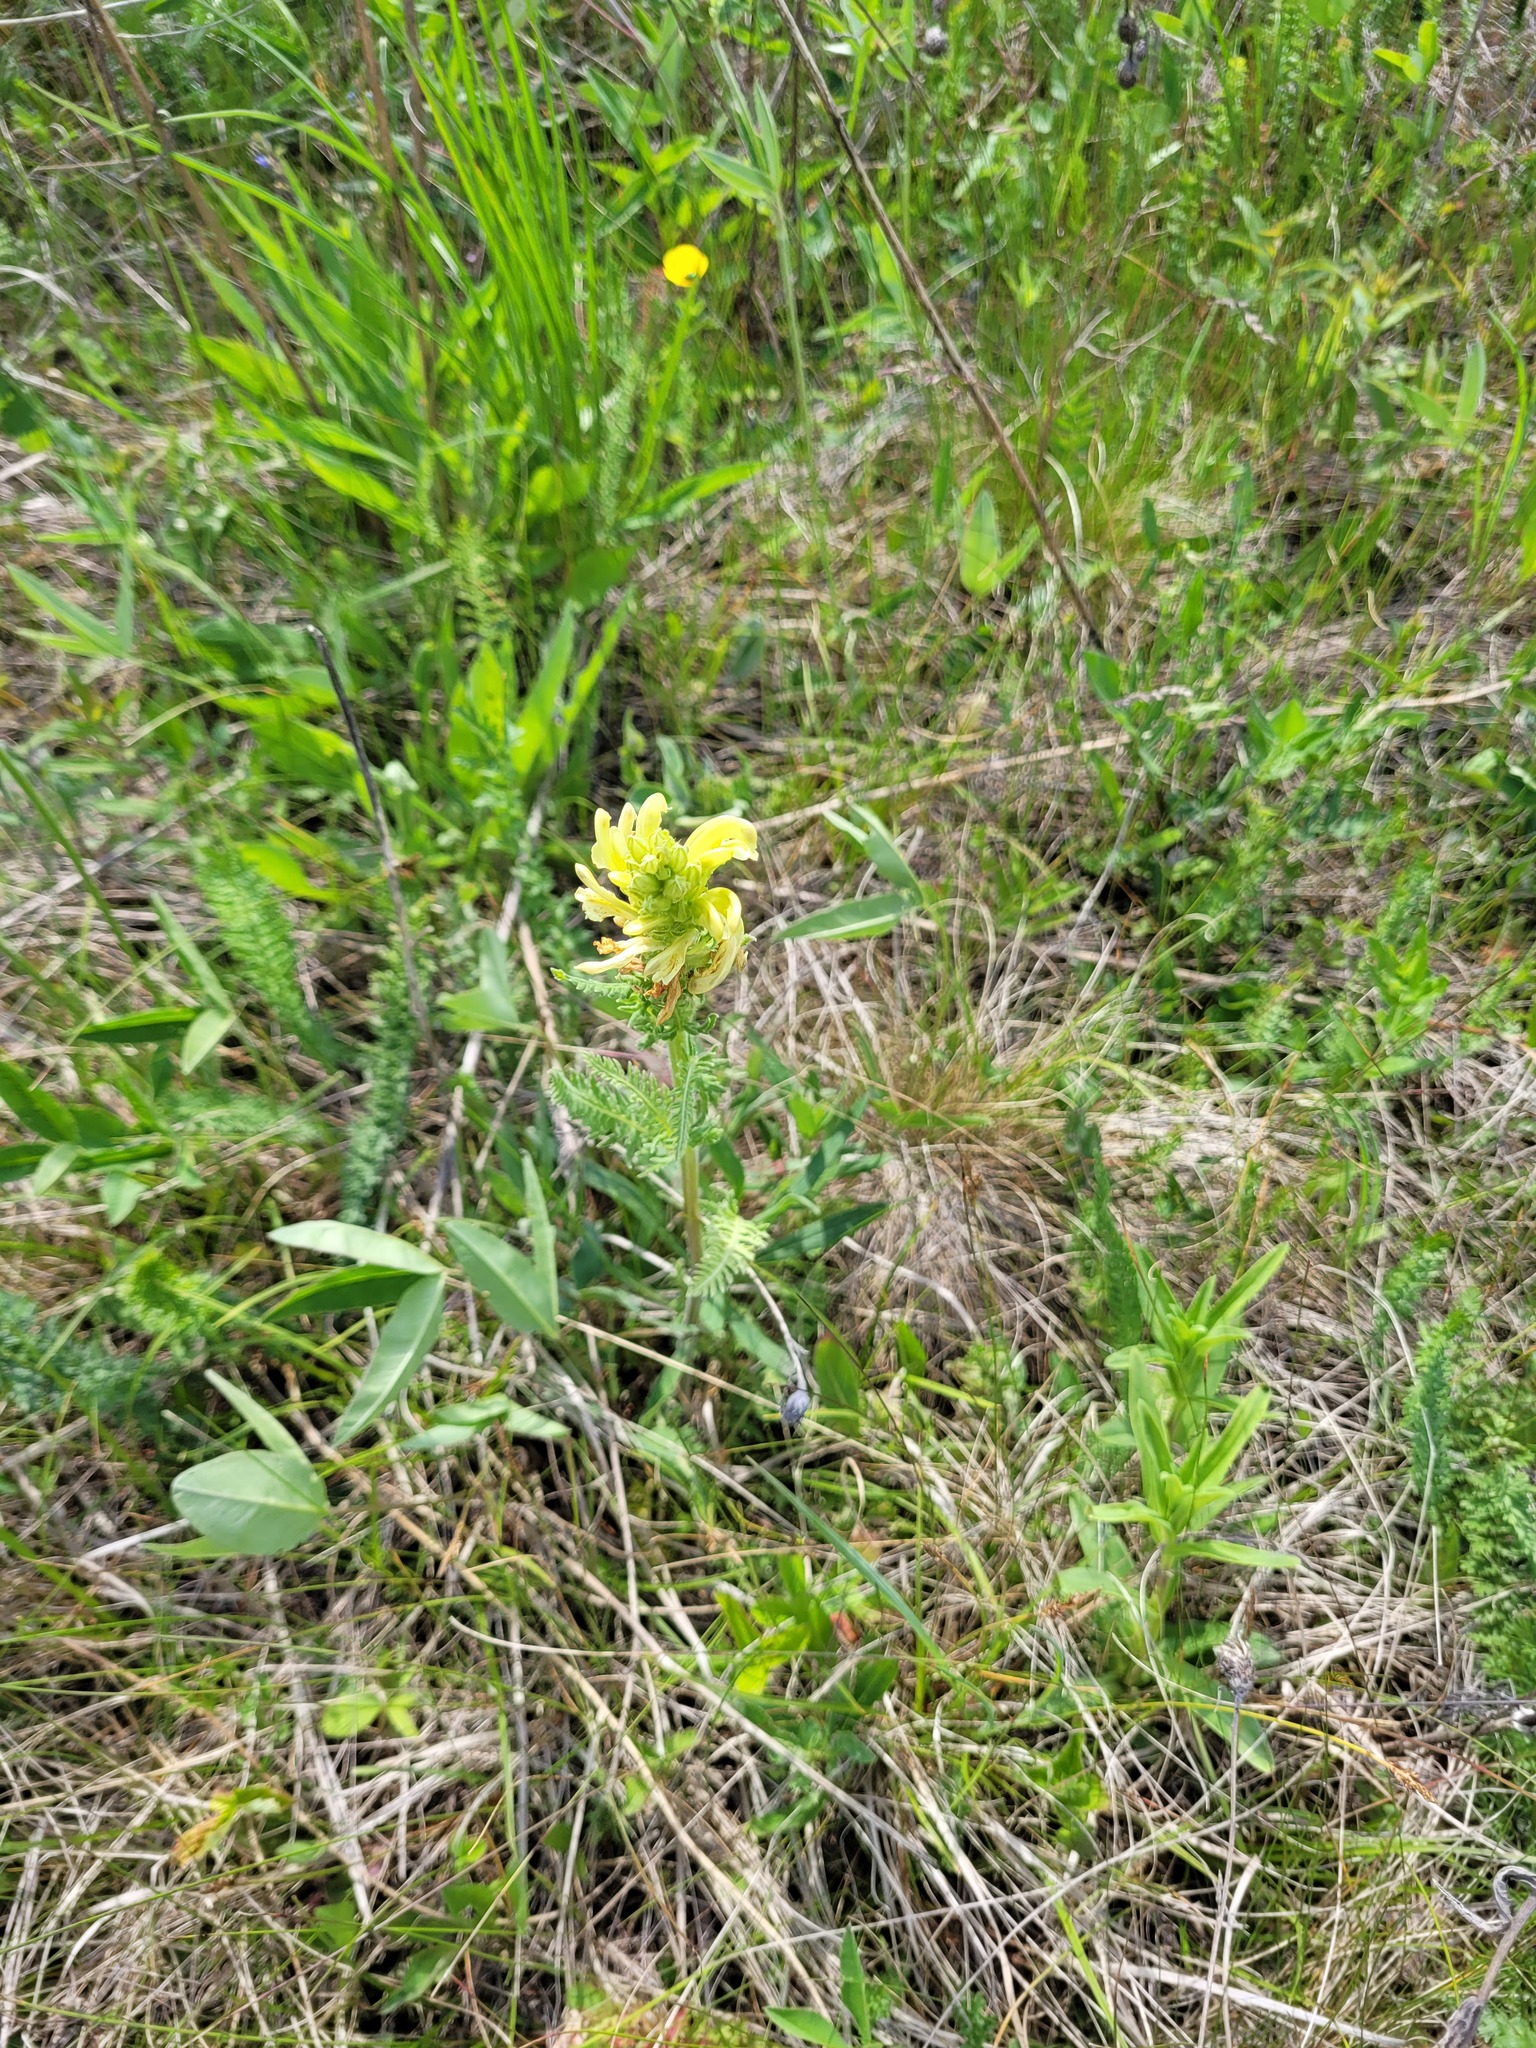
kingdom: Plantae
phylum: Tracheophyta
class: Magnoliopsida
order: Lamiales
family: Orobanchaceae
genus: Pedicularis
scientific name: Pedicularis kaufmannii
